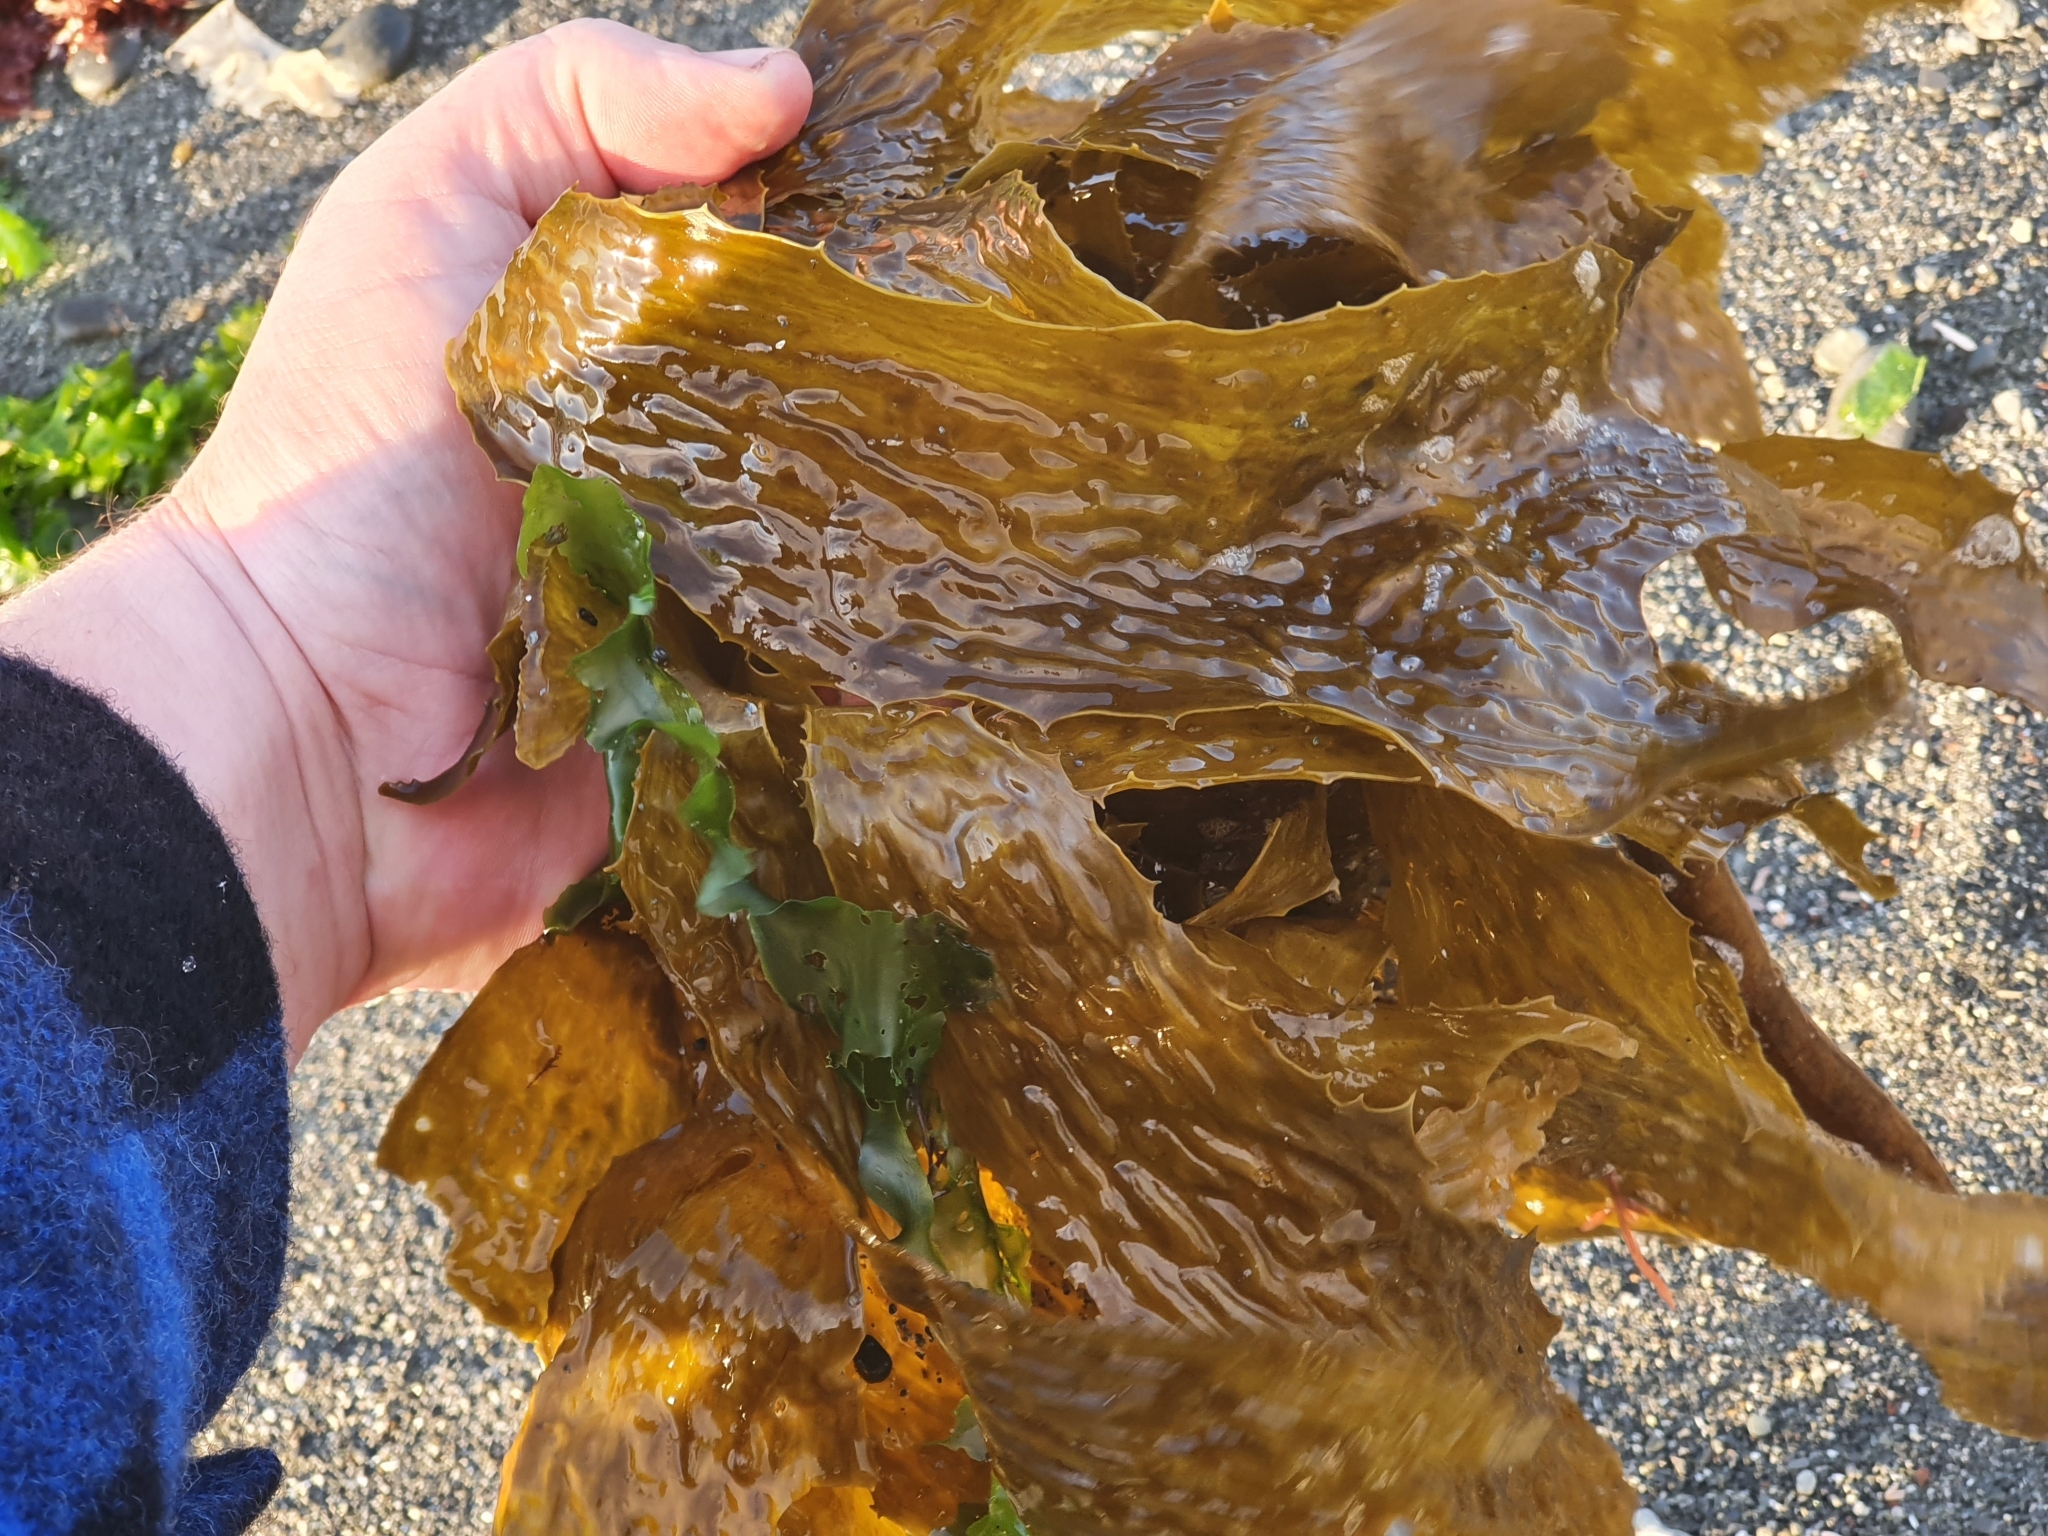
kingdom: Chromista
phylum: Ochrophyta
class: Phaeophyceae
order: Laminariales
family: Lessoniaceae
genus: Ecklonia
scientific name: Ecklonia radiata
